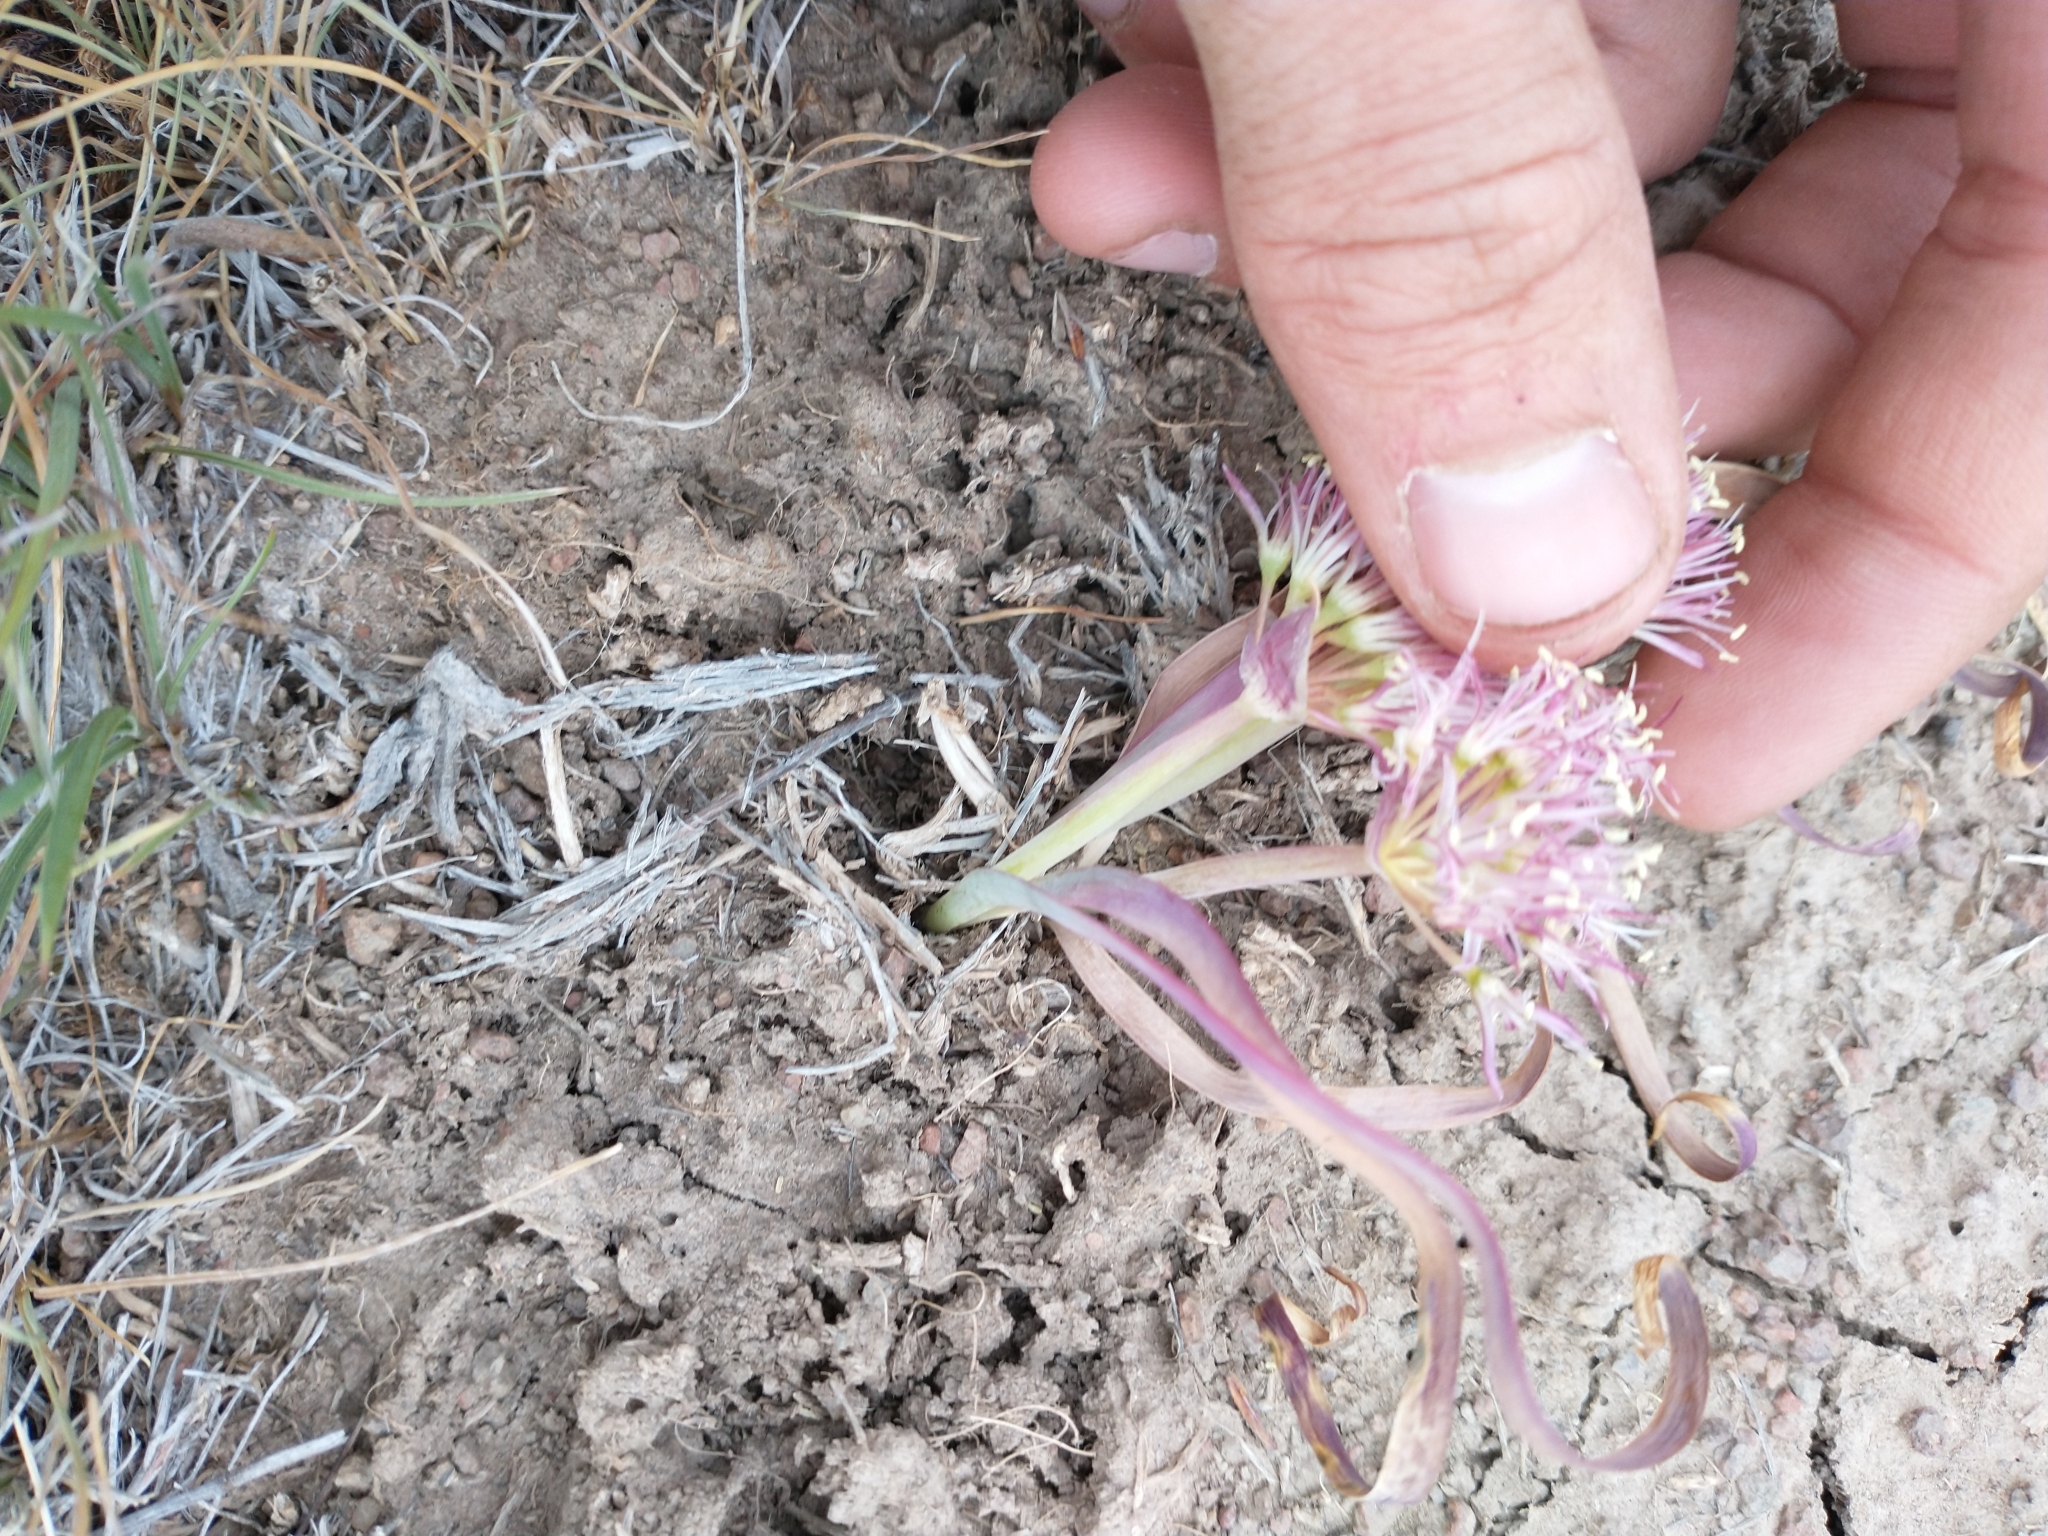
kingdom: Plantae
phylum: Tracheophyta
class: Liliopsida
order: Asparagales
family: Amaryllidaceae
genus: Allium
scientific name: Allium anceps
